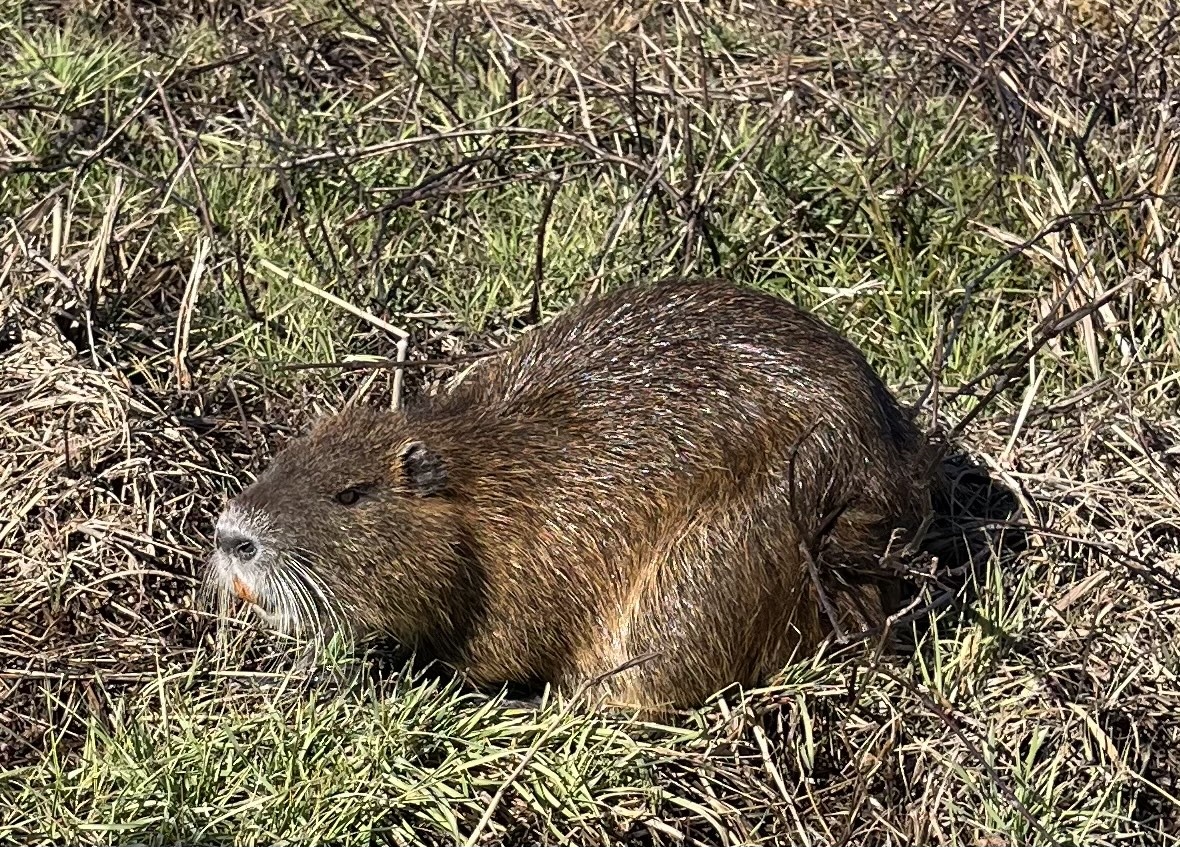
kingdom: Animalia
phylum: Chordata
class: Mammalia
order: Rodentia
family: Myocastoridae
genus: Myocastor
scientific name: Myocastor coypus
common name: Coypu
